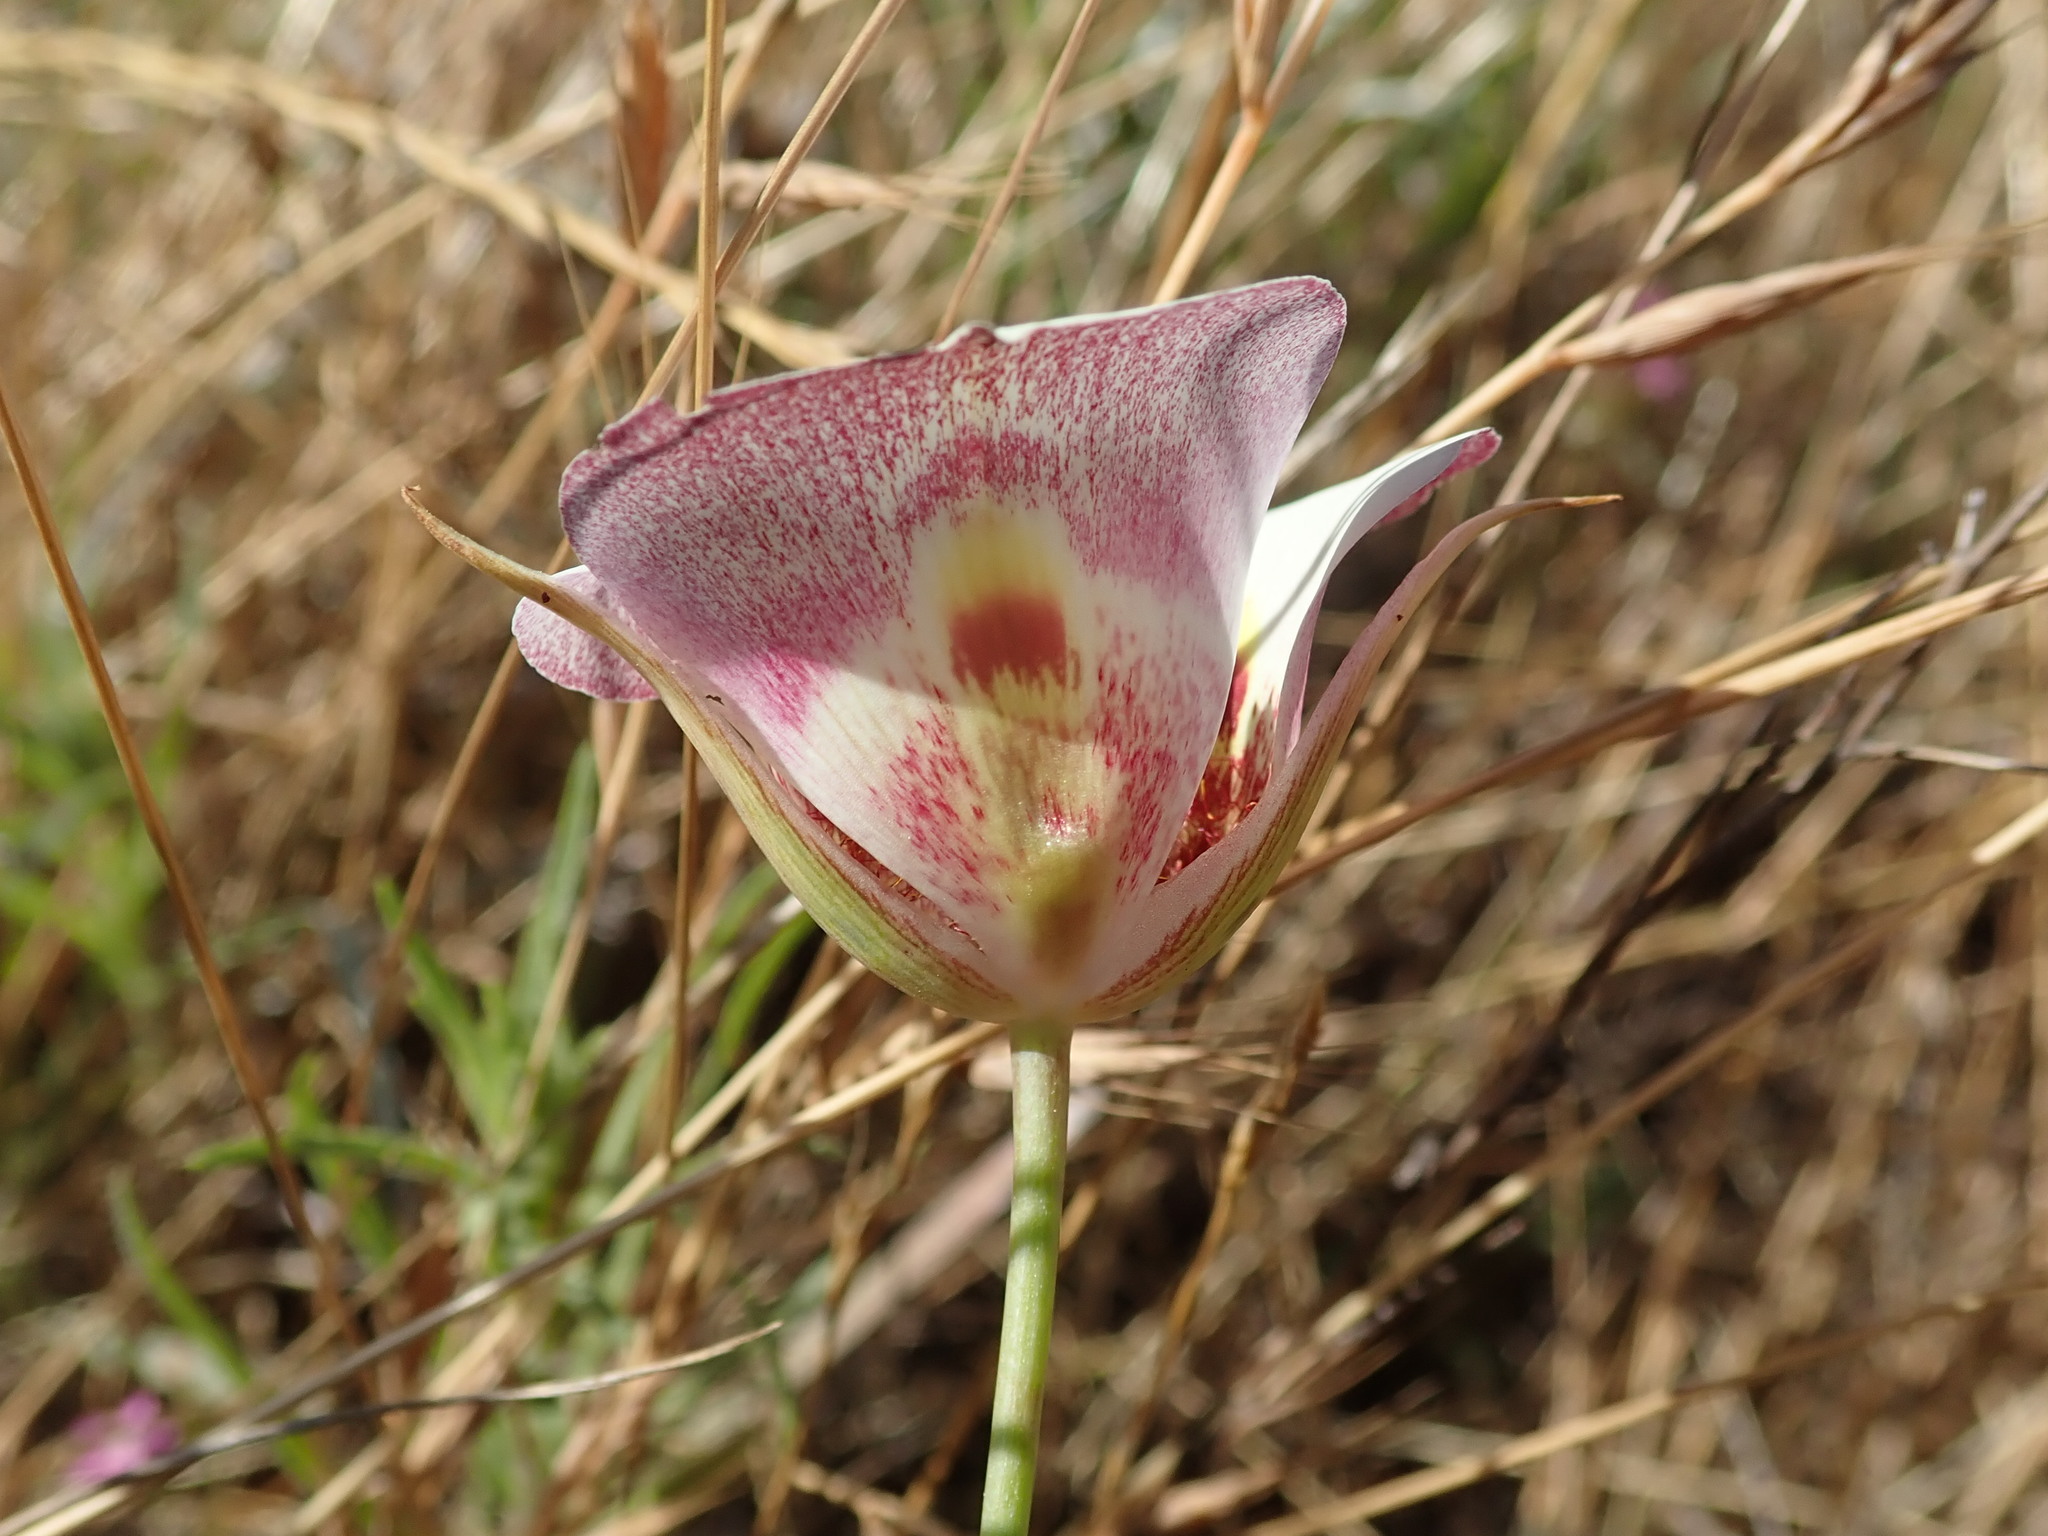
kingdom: Plantae
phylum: Tracheophyta
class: Liliopsida
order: Liliales
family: Liliaceae
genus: Calochortus
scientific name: Calochortus argillosus
